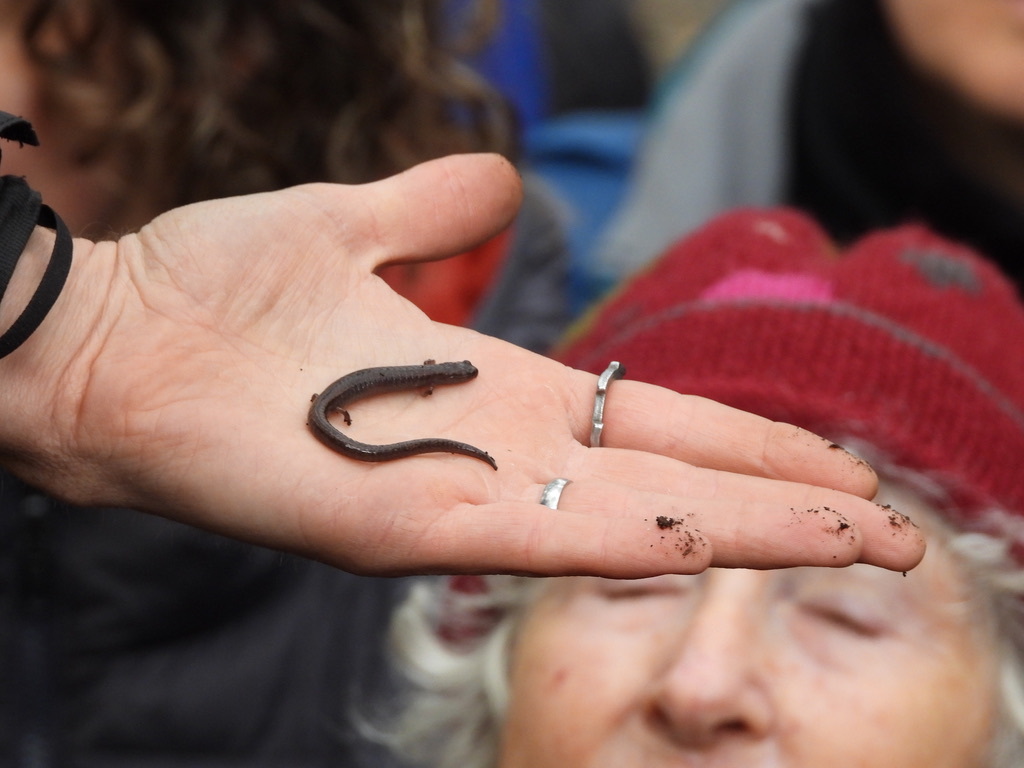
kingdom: Animalia
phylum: Chordata
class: Amphibia
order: Caudata
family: Plethodontidae
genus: Batrachoseps
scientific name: Batrachoseps attenuatus
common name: California slender salamander
